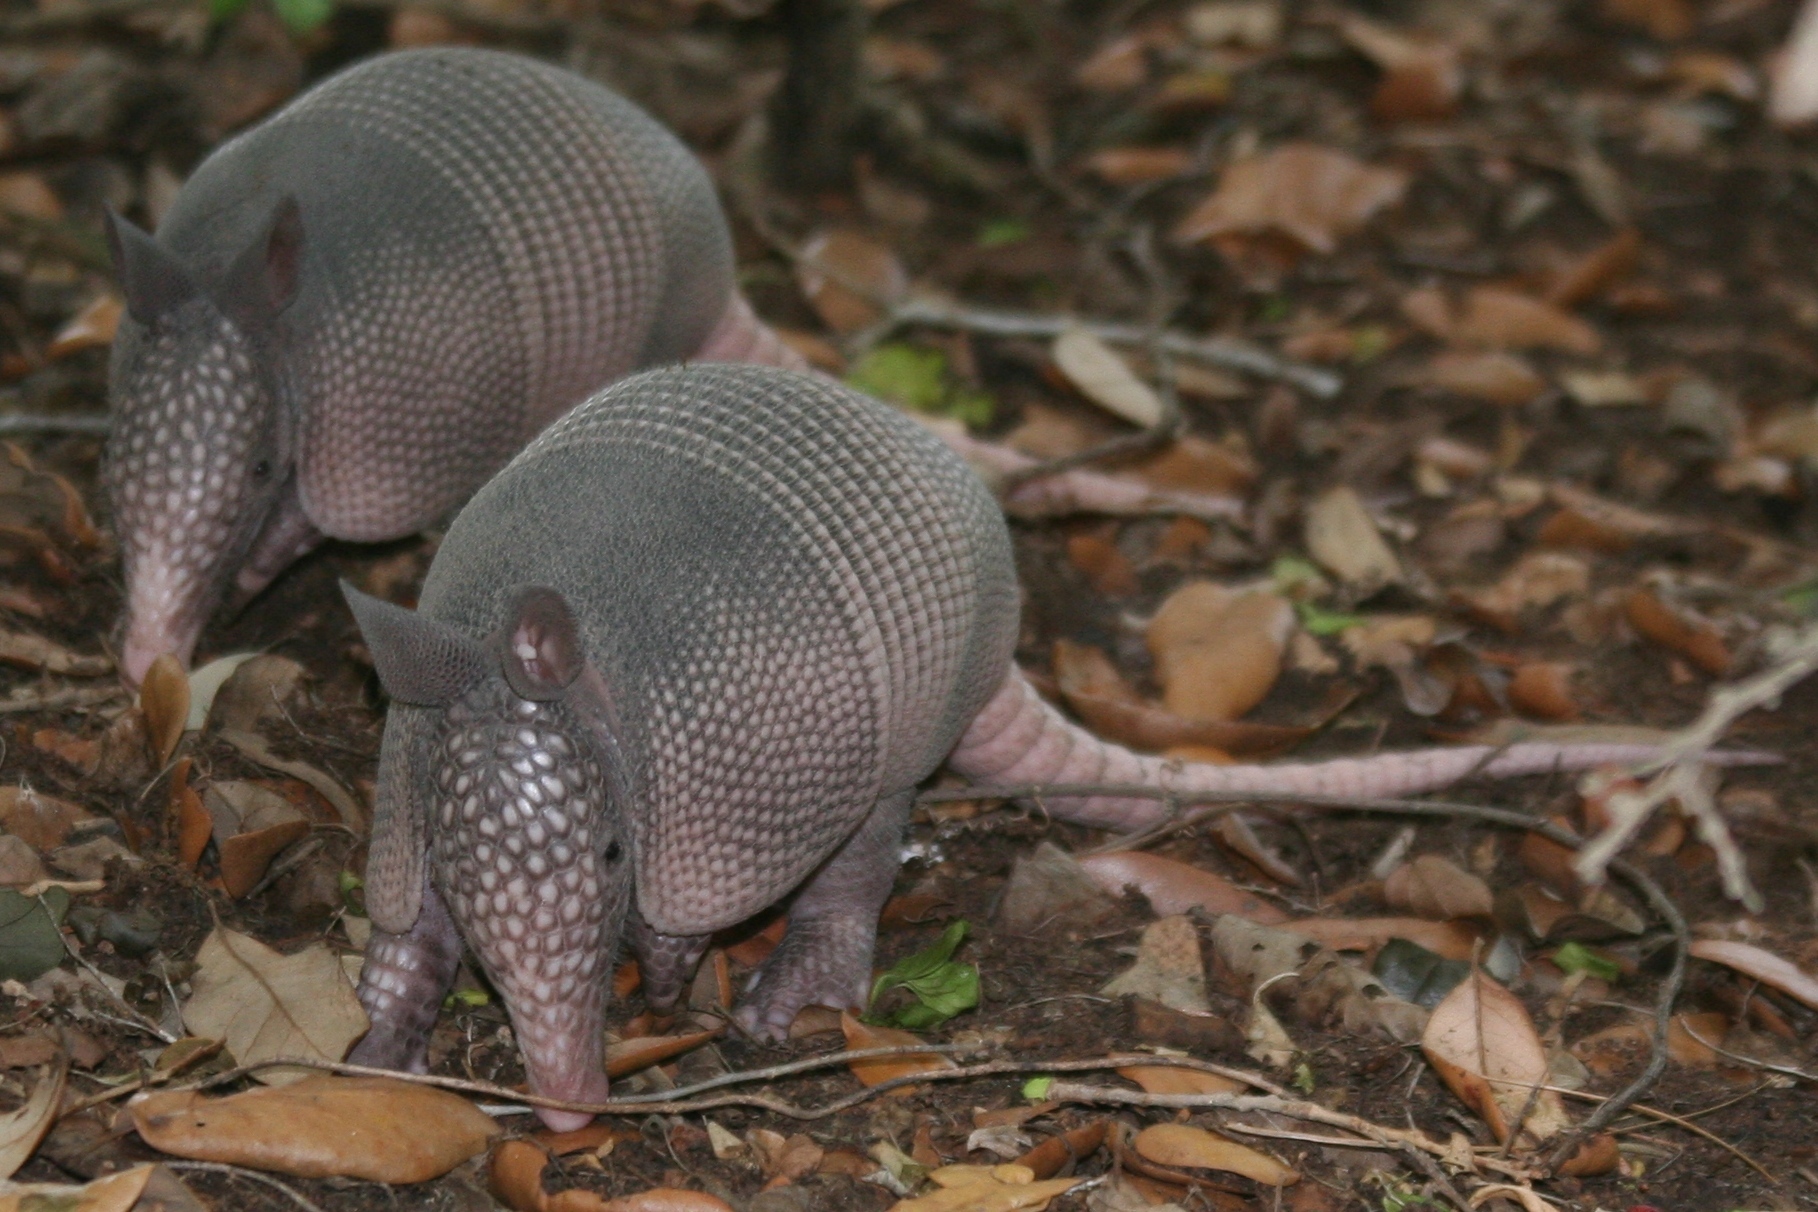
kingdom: Animalia
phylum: Chordata
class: Mammalia
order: Cingulata
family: Dasypodidae
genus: Dasypus
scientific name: Dasypus novemcinctus
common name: Nine-banded armadillo
